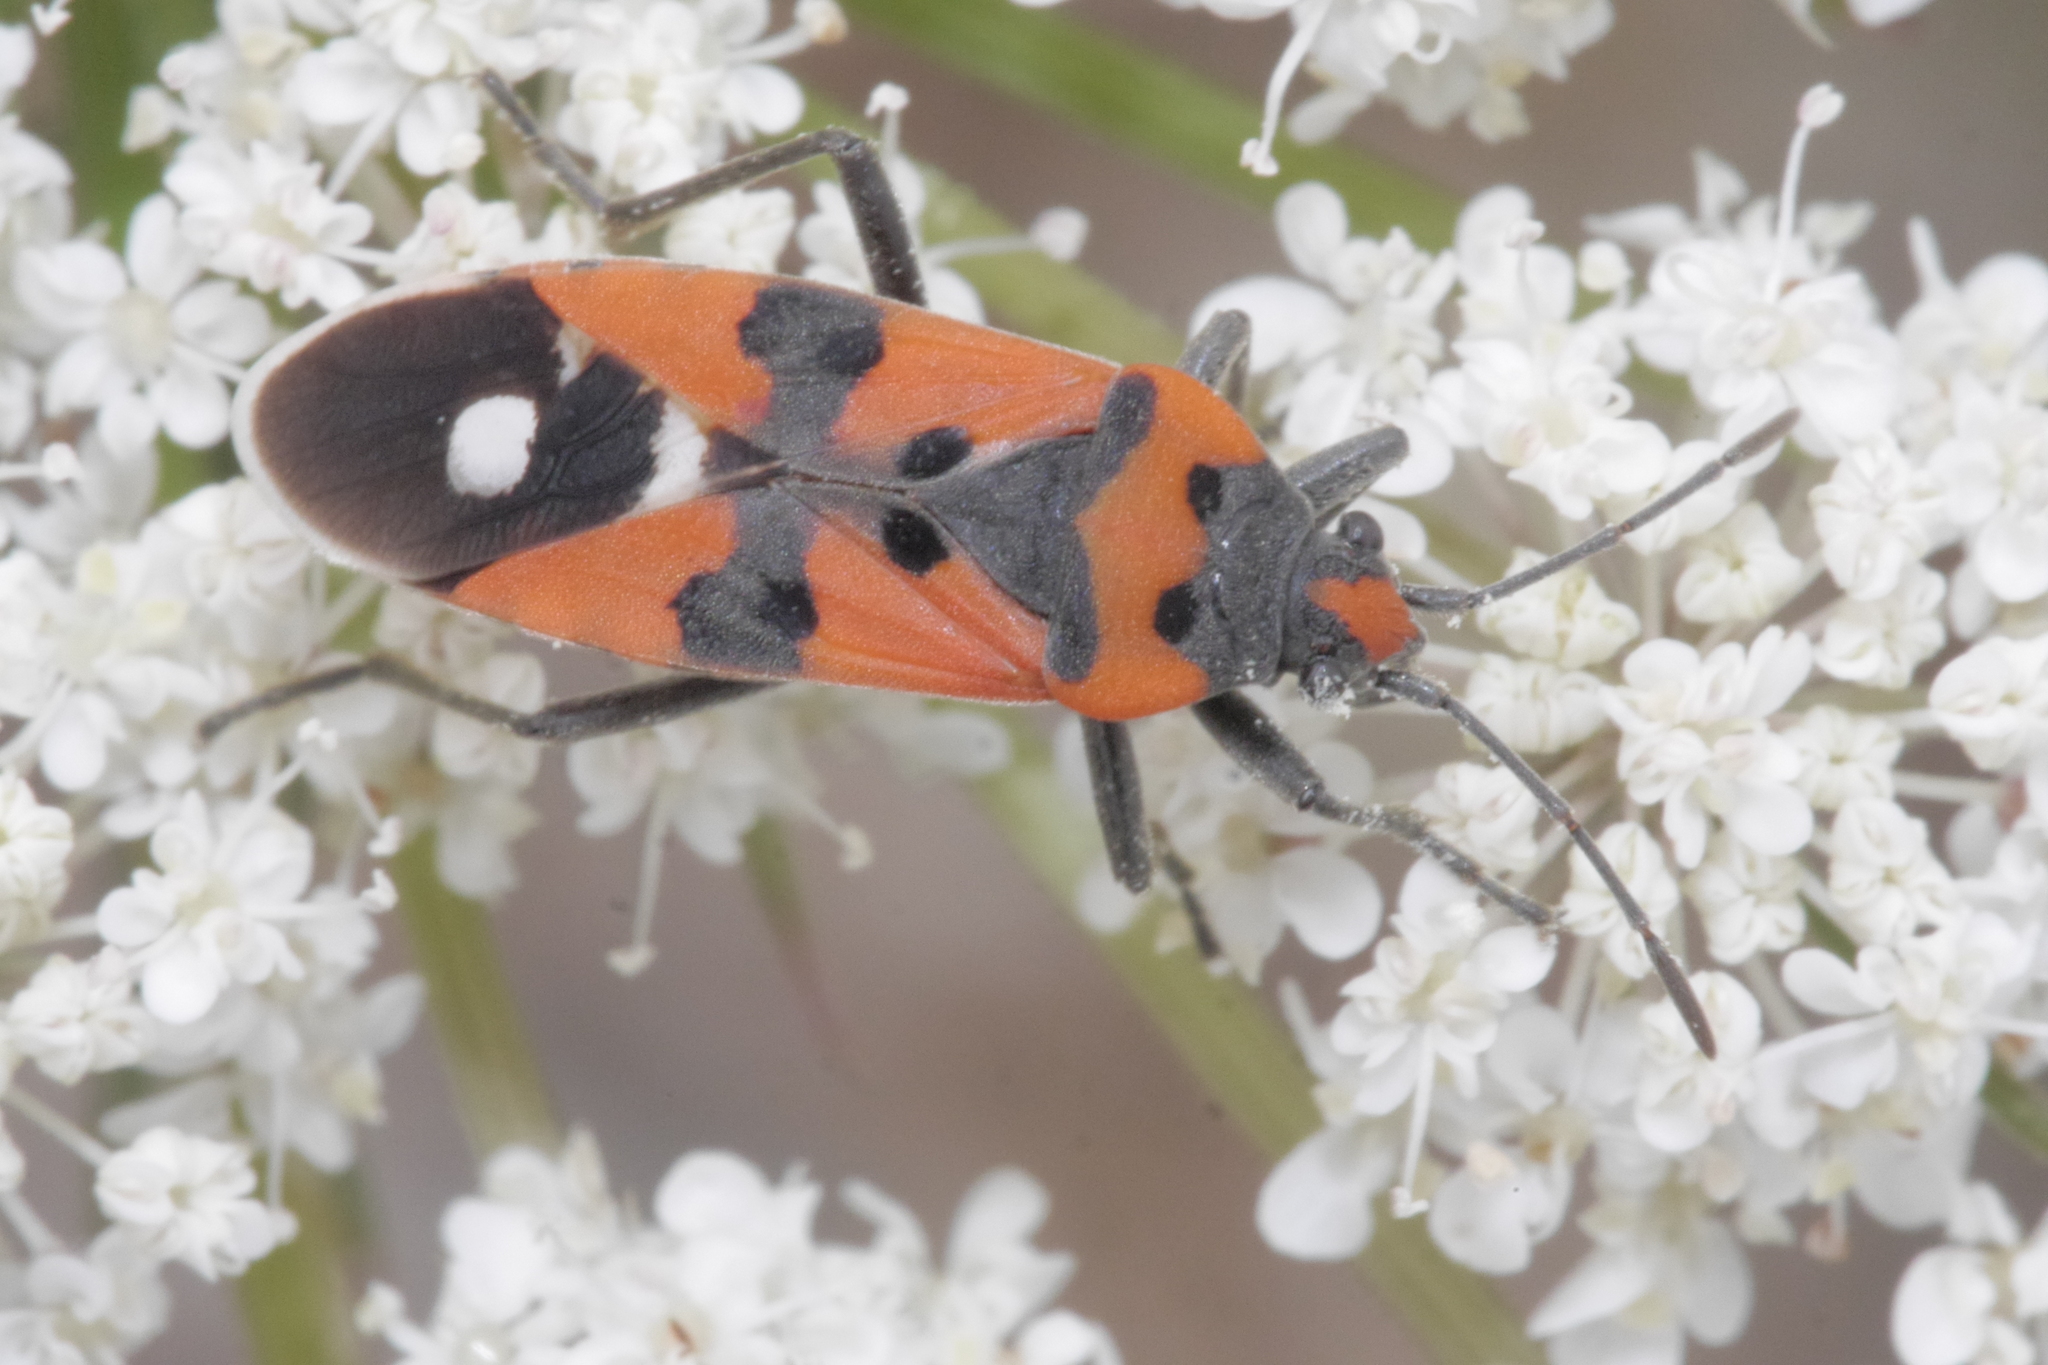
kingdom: Animalia
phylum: Arthropoda
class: Insecta
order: Hemiptera
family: Lygaeidae
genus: Lygaeus
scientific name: Lygaeus equestris
